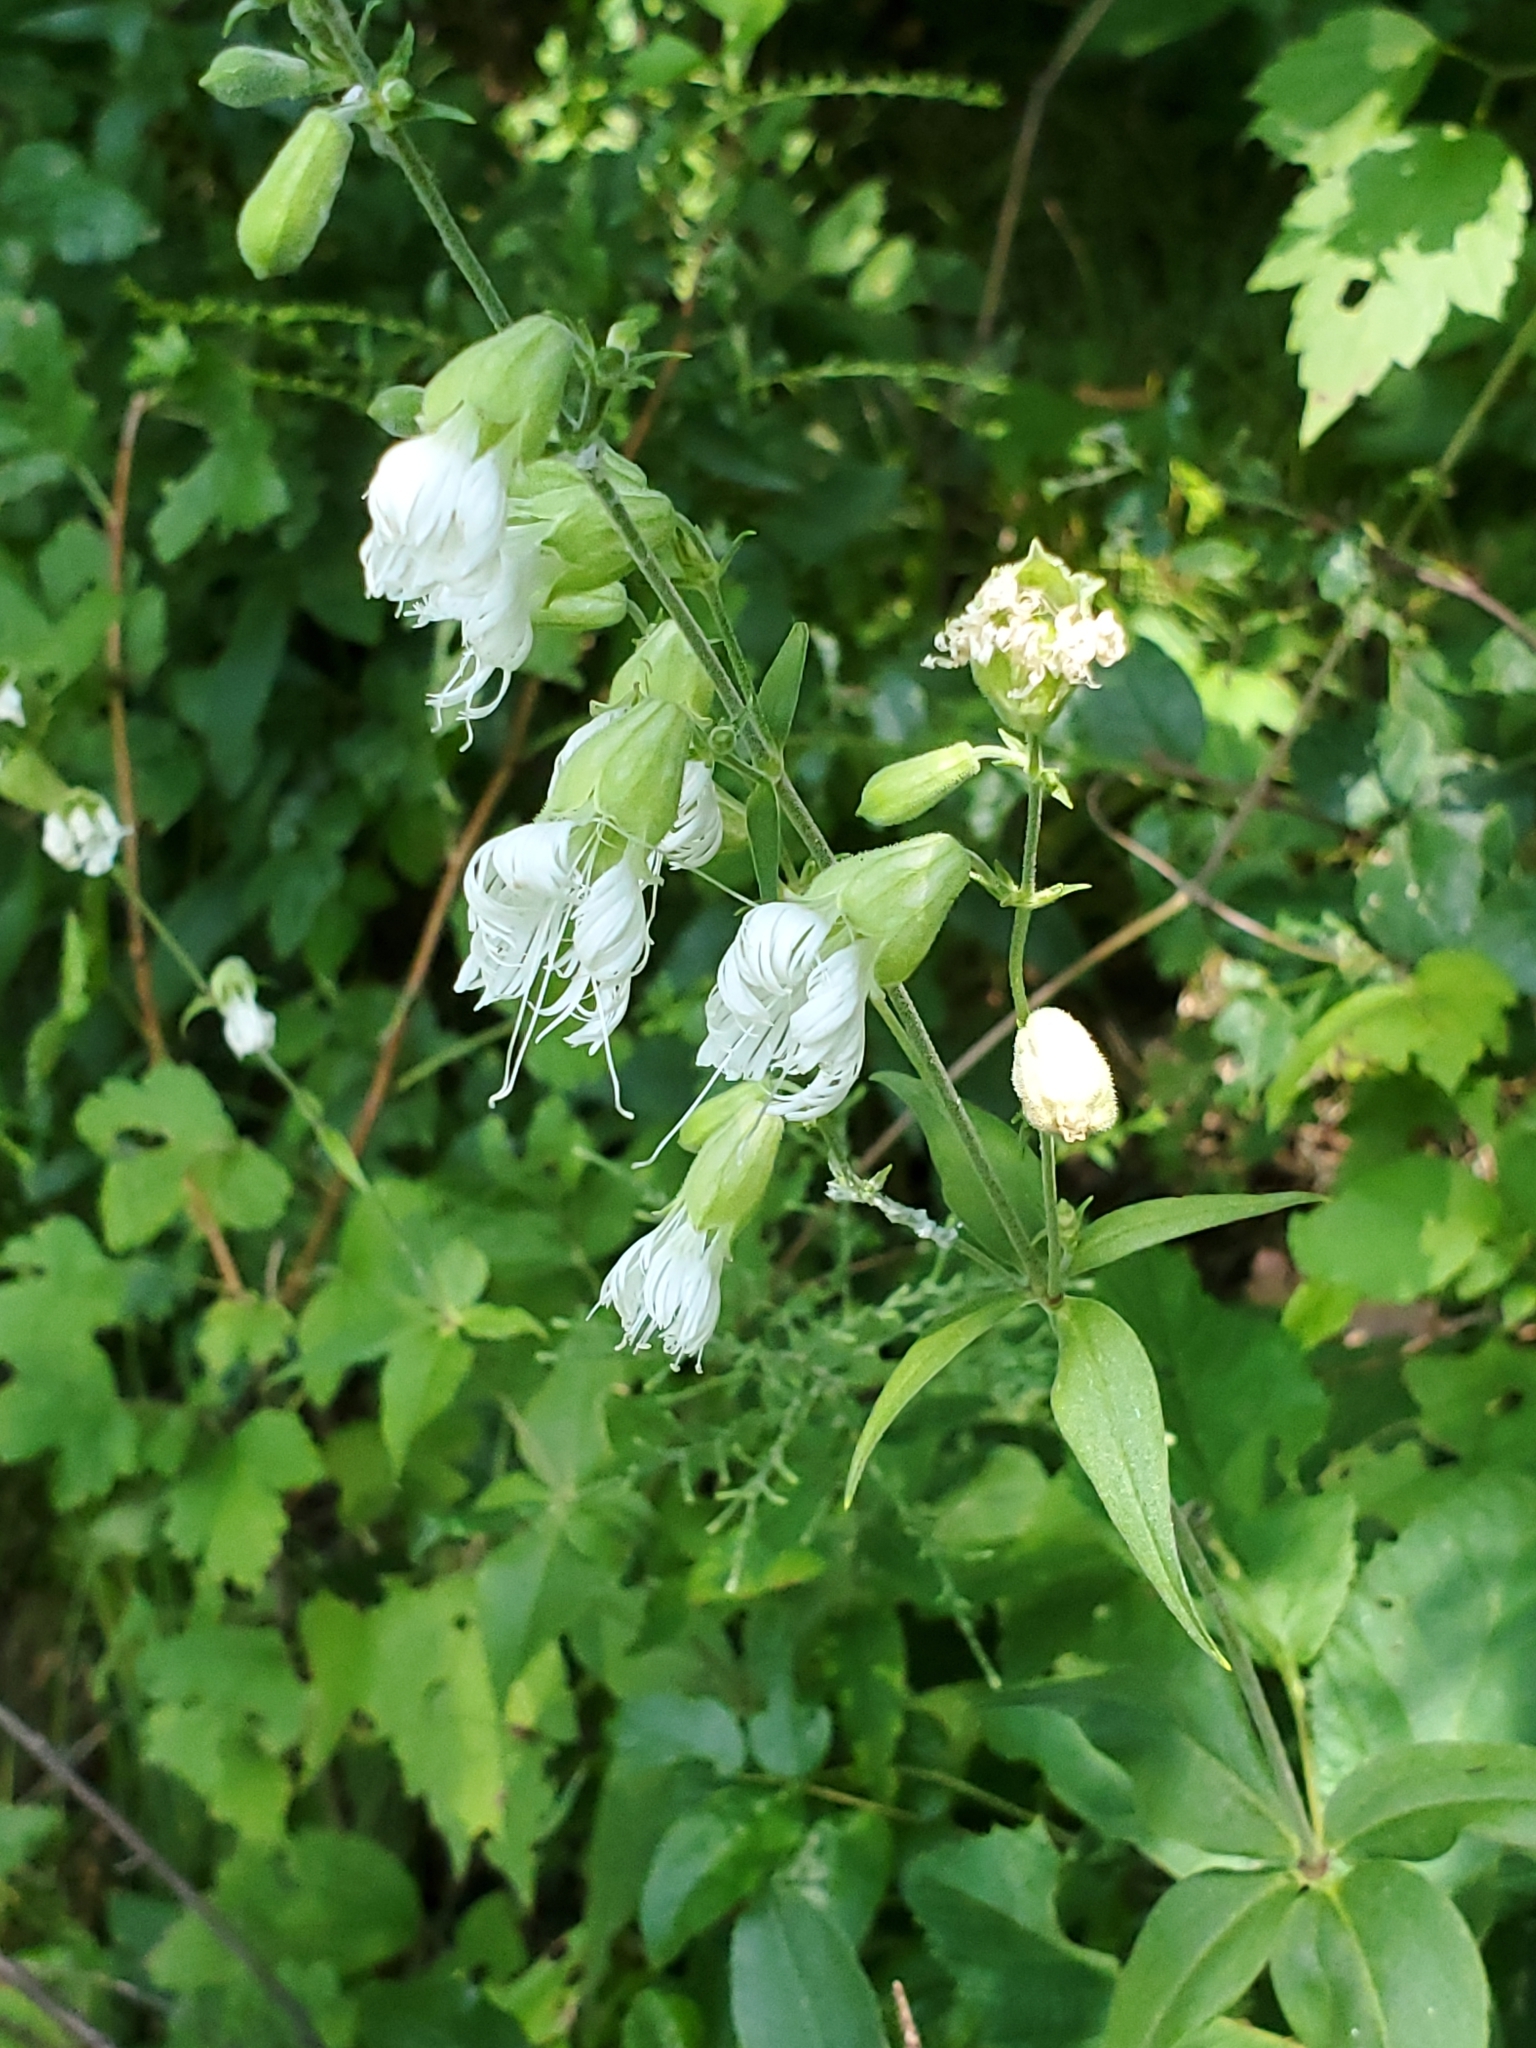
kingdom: Plantae
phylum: Tracheophyta
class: Magnoliopsida
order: Caryophyllales
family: Caryophyllaceae
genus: Silene
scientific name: Silene stellata
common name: Starry campion
